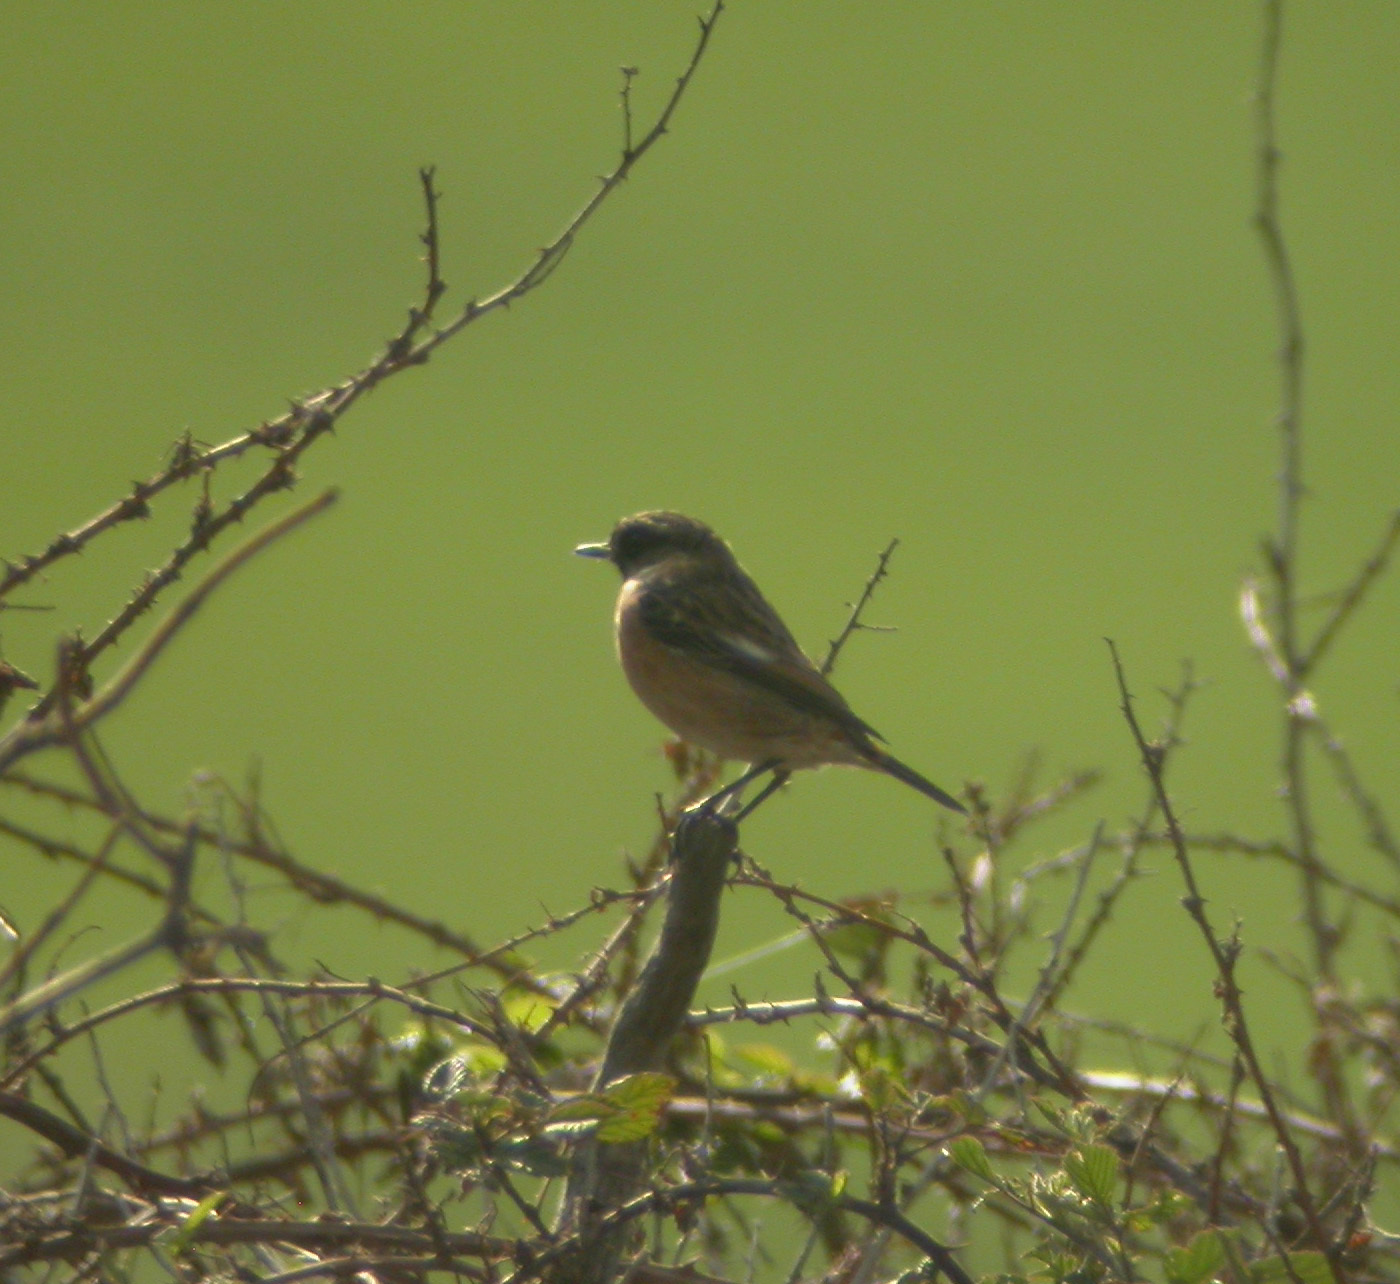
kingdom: Animalia
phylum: Chordata
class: Aves
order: Passeriformes
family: Muscicapidae
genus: Saxicola
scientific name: Saxicola rubicola
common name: European stonechat
